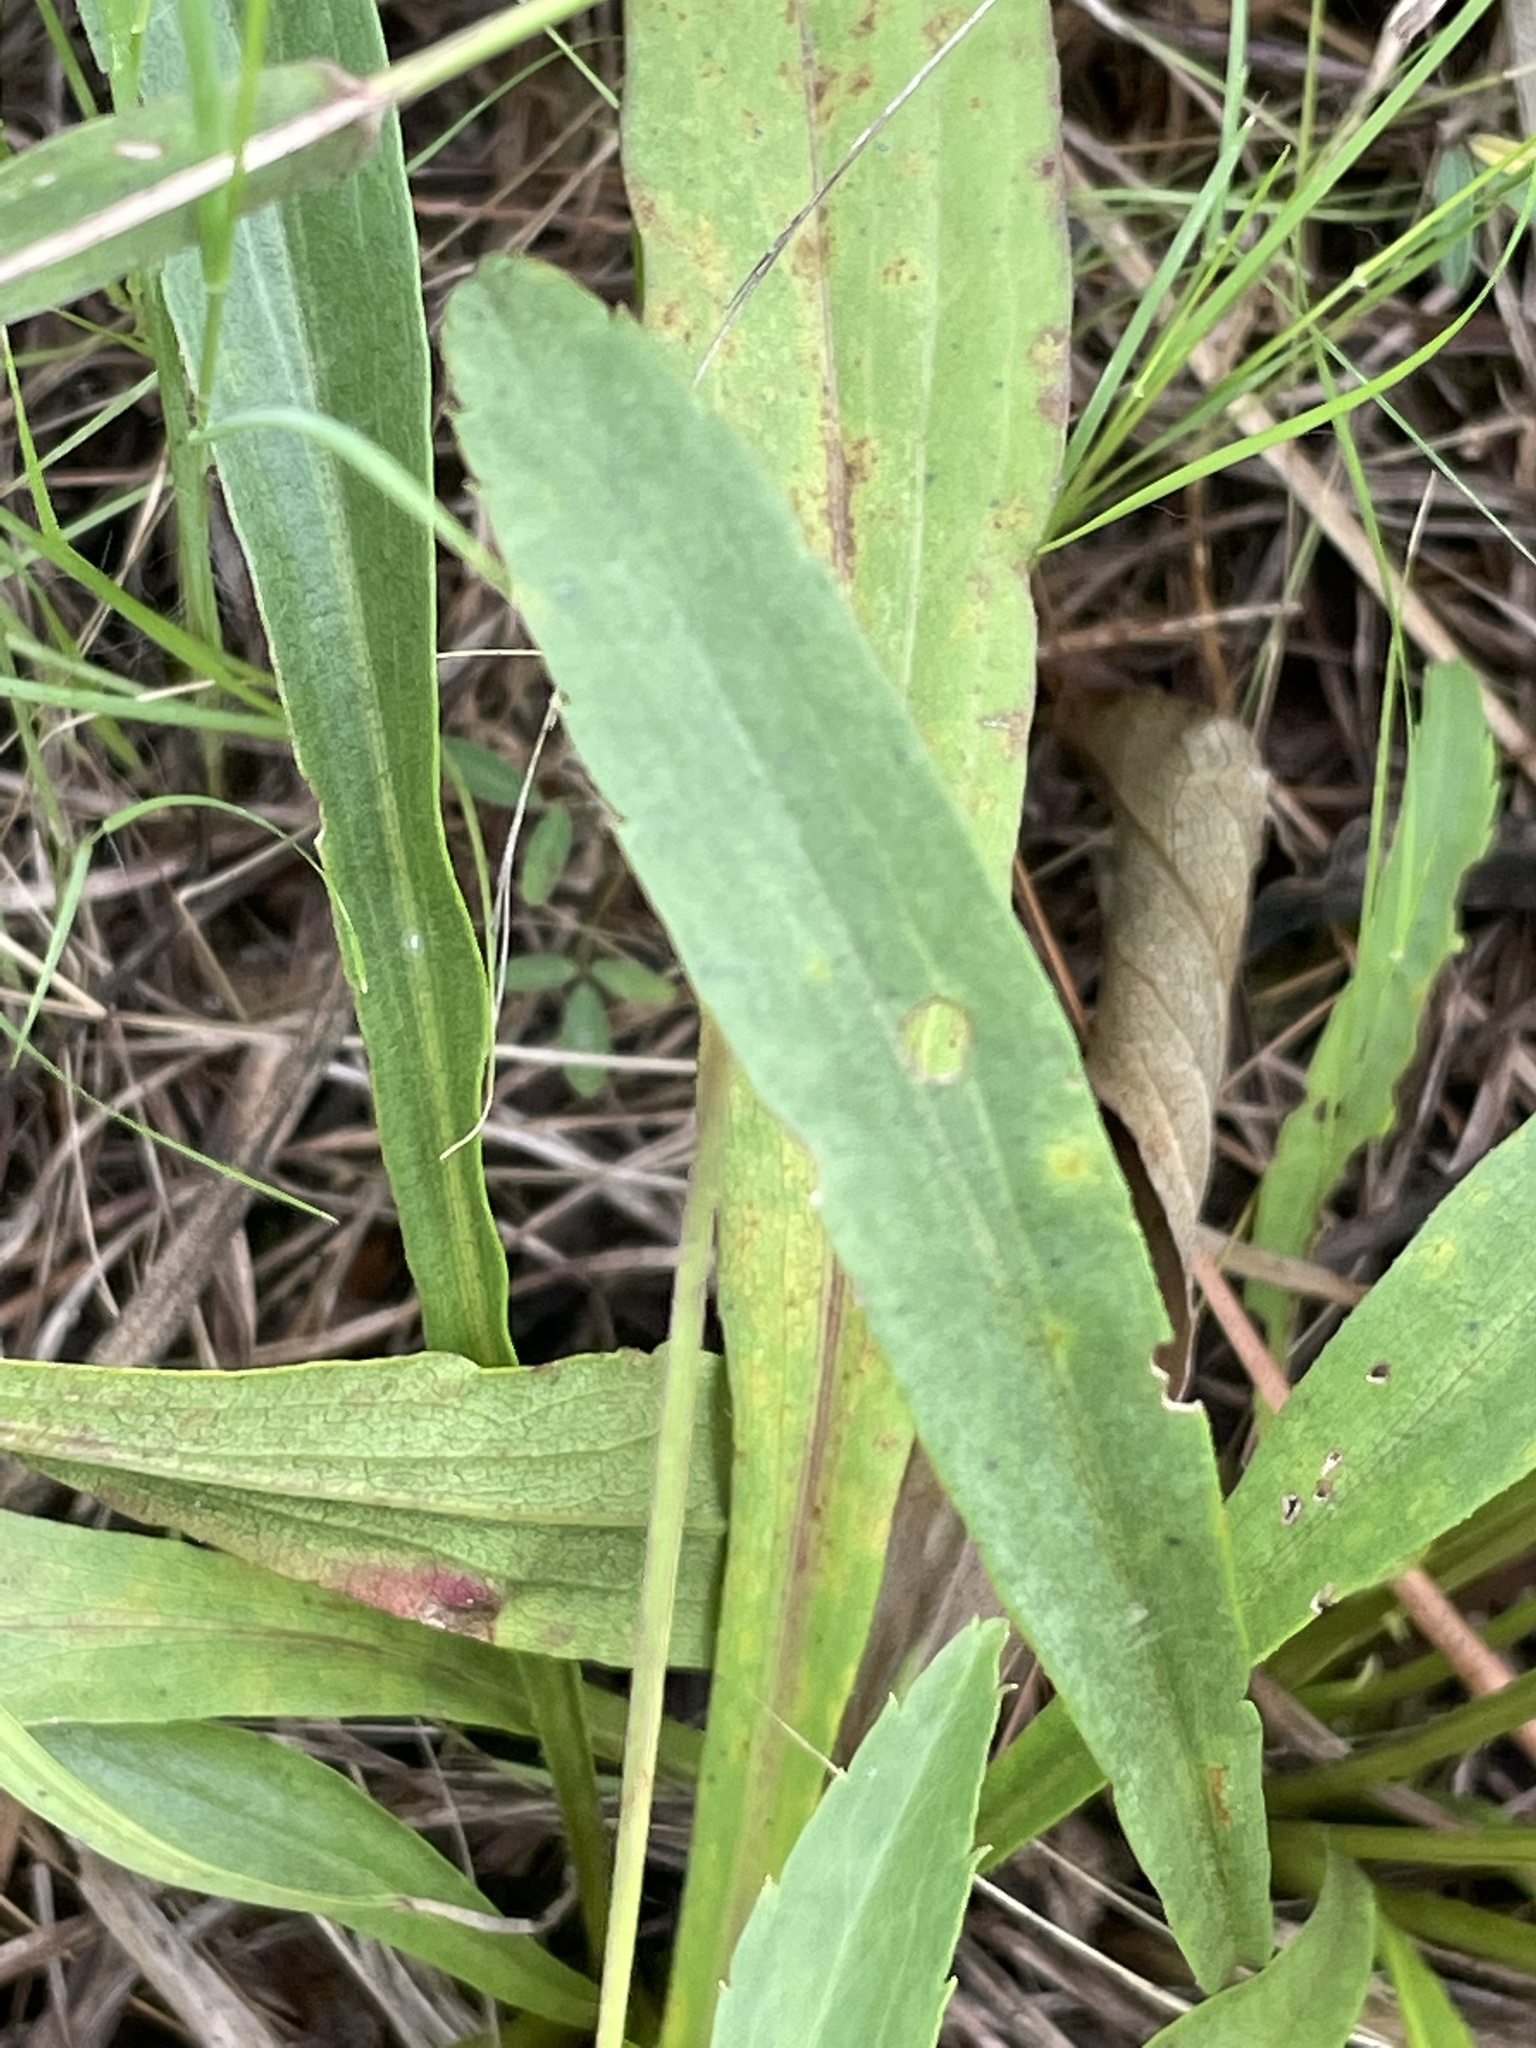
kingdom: Plantae
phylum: Tracheophyta
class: Magnoliopsida
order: Asterales
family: Asteraceae
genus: Solidago
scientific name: Solidago pinetorum
